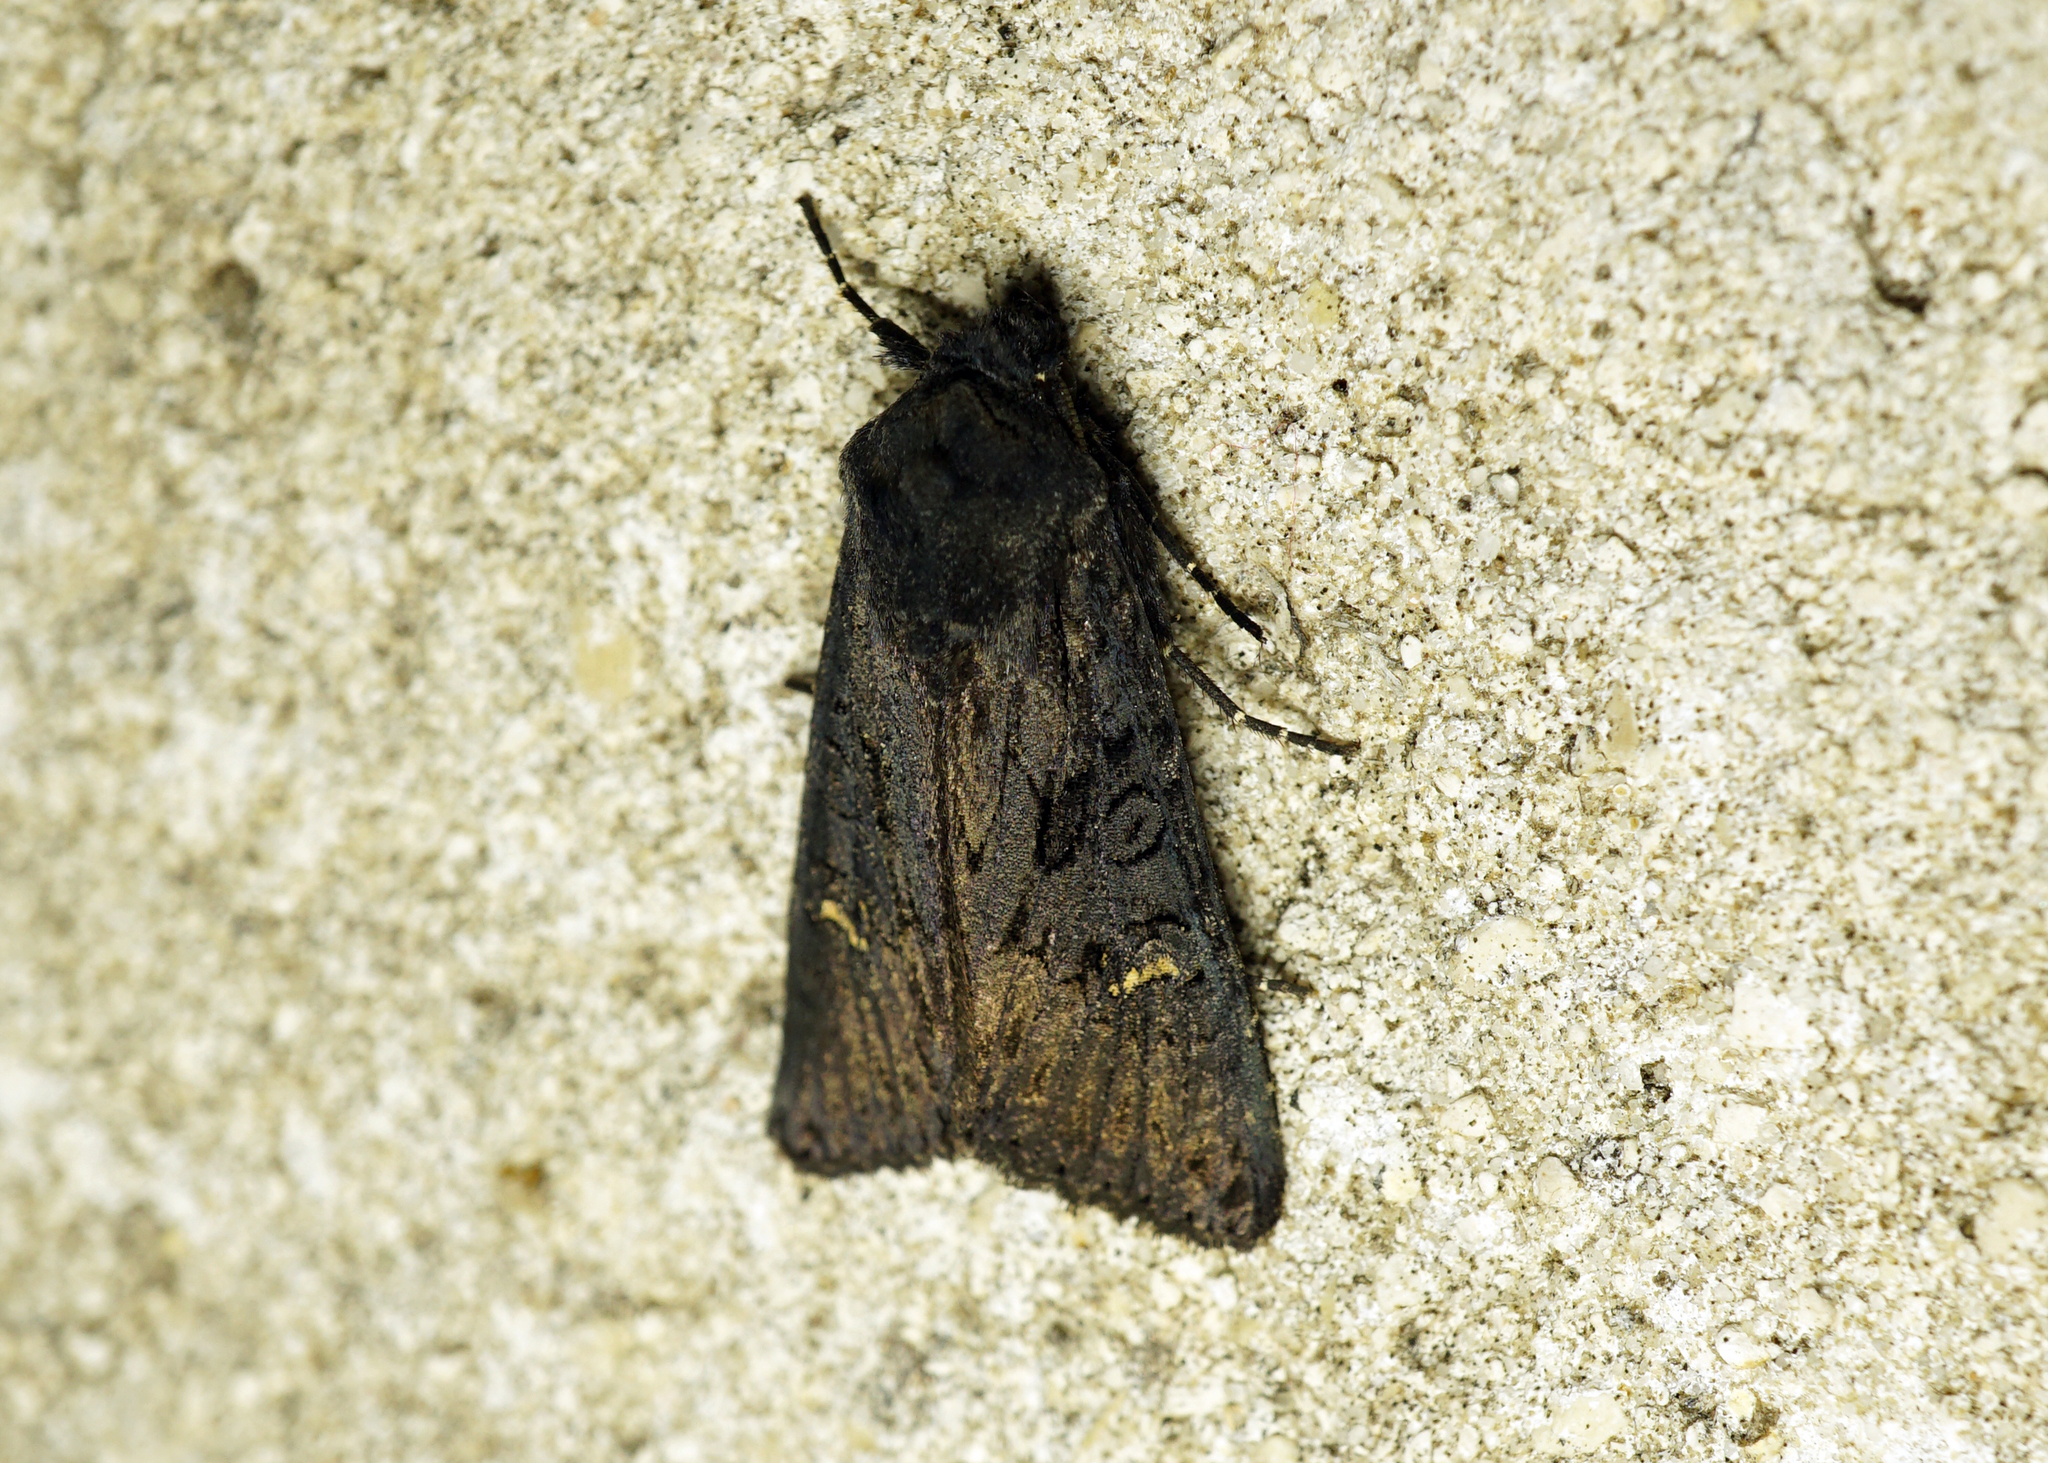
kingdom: Animalia
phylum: Arthropoda
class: Insecta
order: Lepidoptera
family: Noctuidae
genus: Aporophyla
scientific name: Aporophyla nigra
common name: Black rustic
